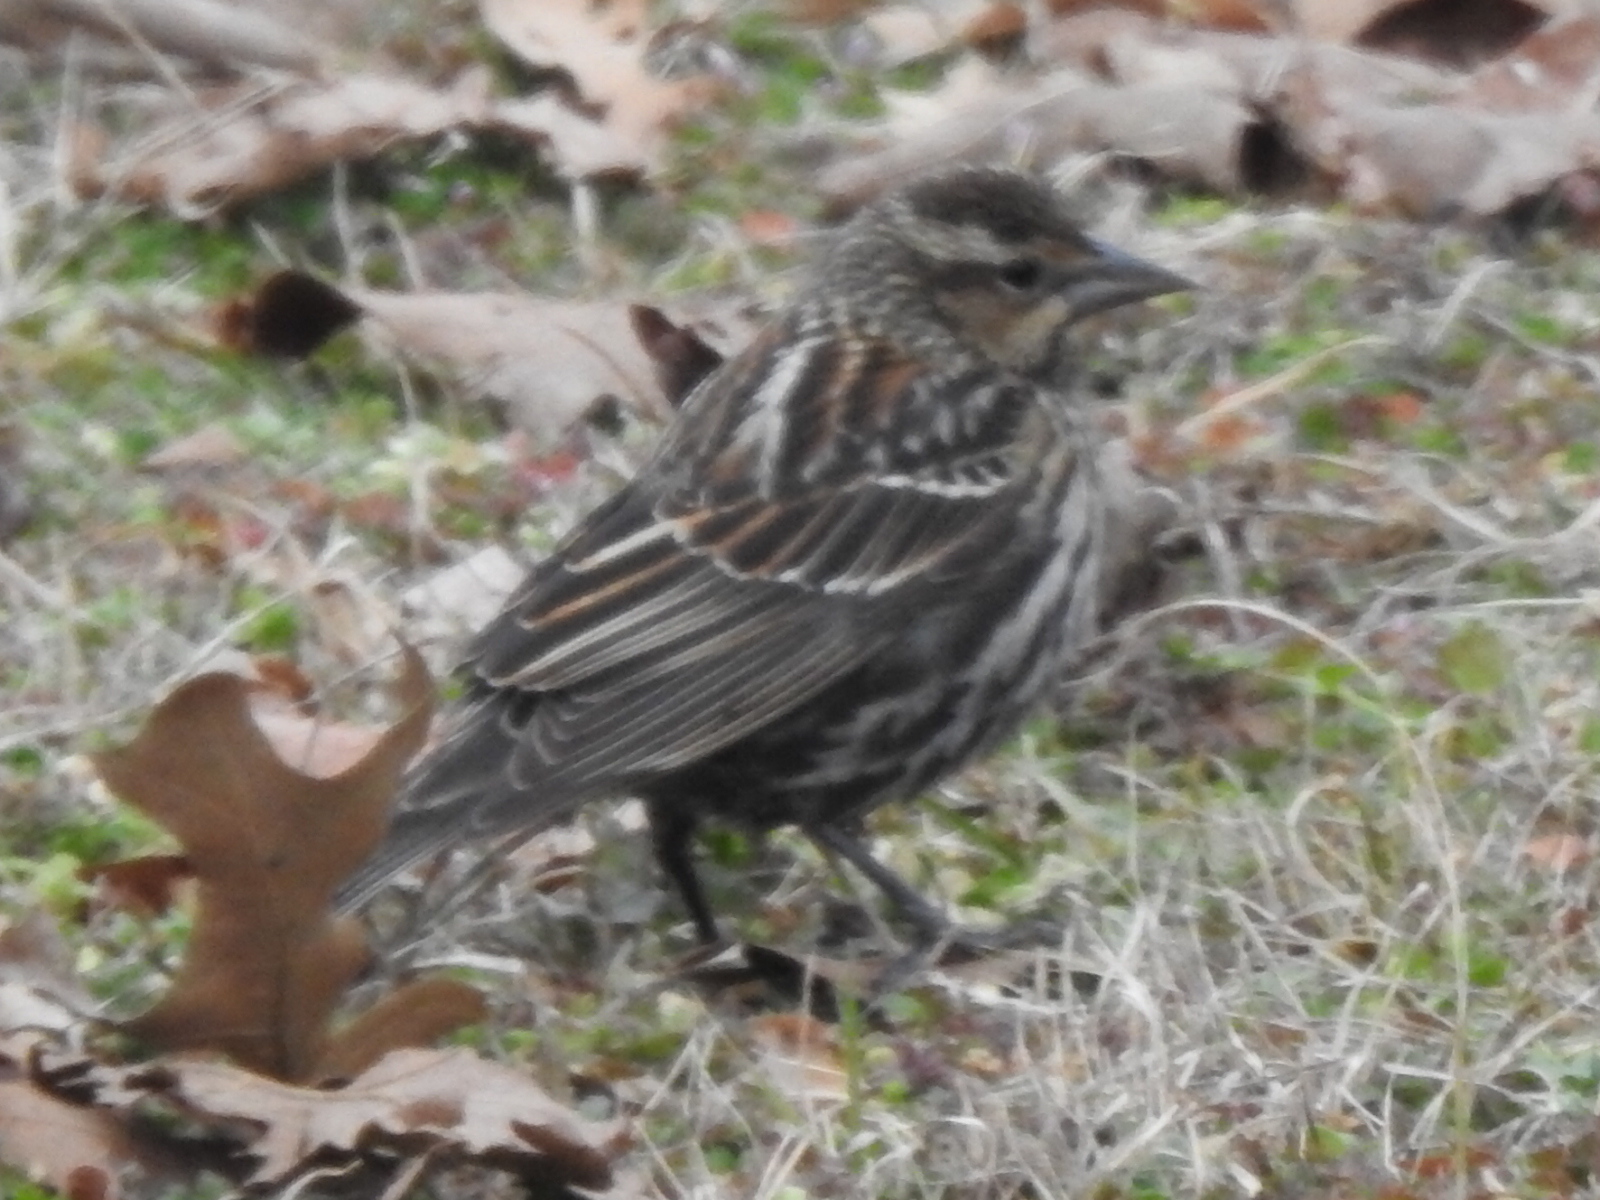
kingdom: Animalia
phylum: Chordata
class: Aves
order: Passeriformes
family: Icteridae
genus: Agelaius
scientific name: Agelaius phoeniceus
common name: Red-winged blackbird
